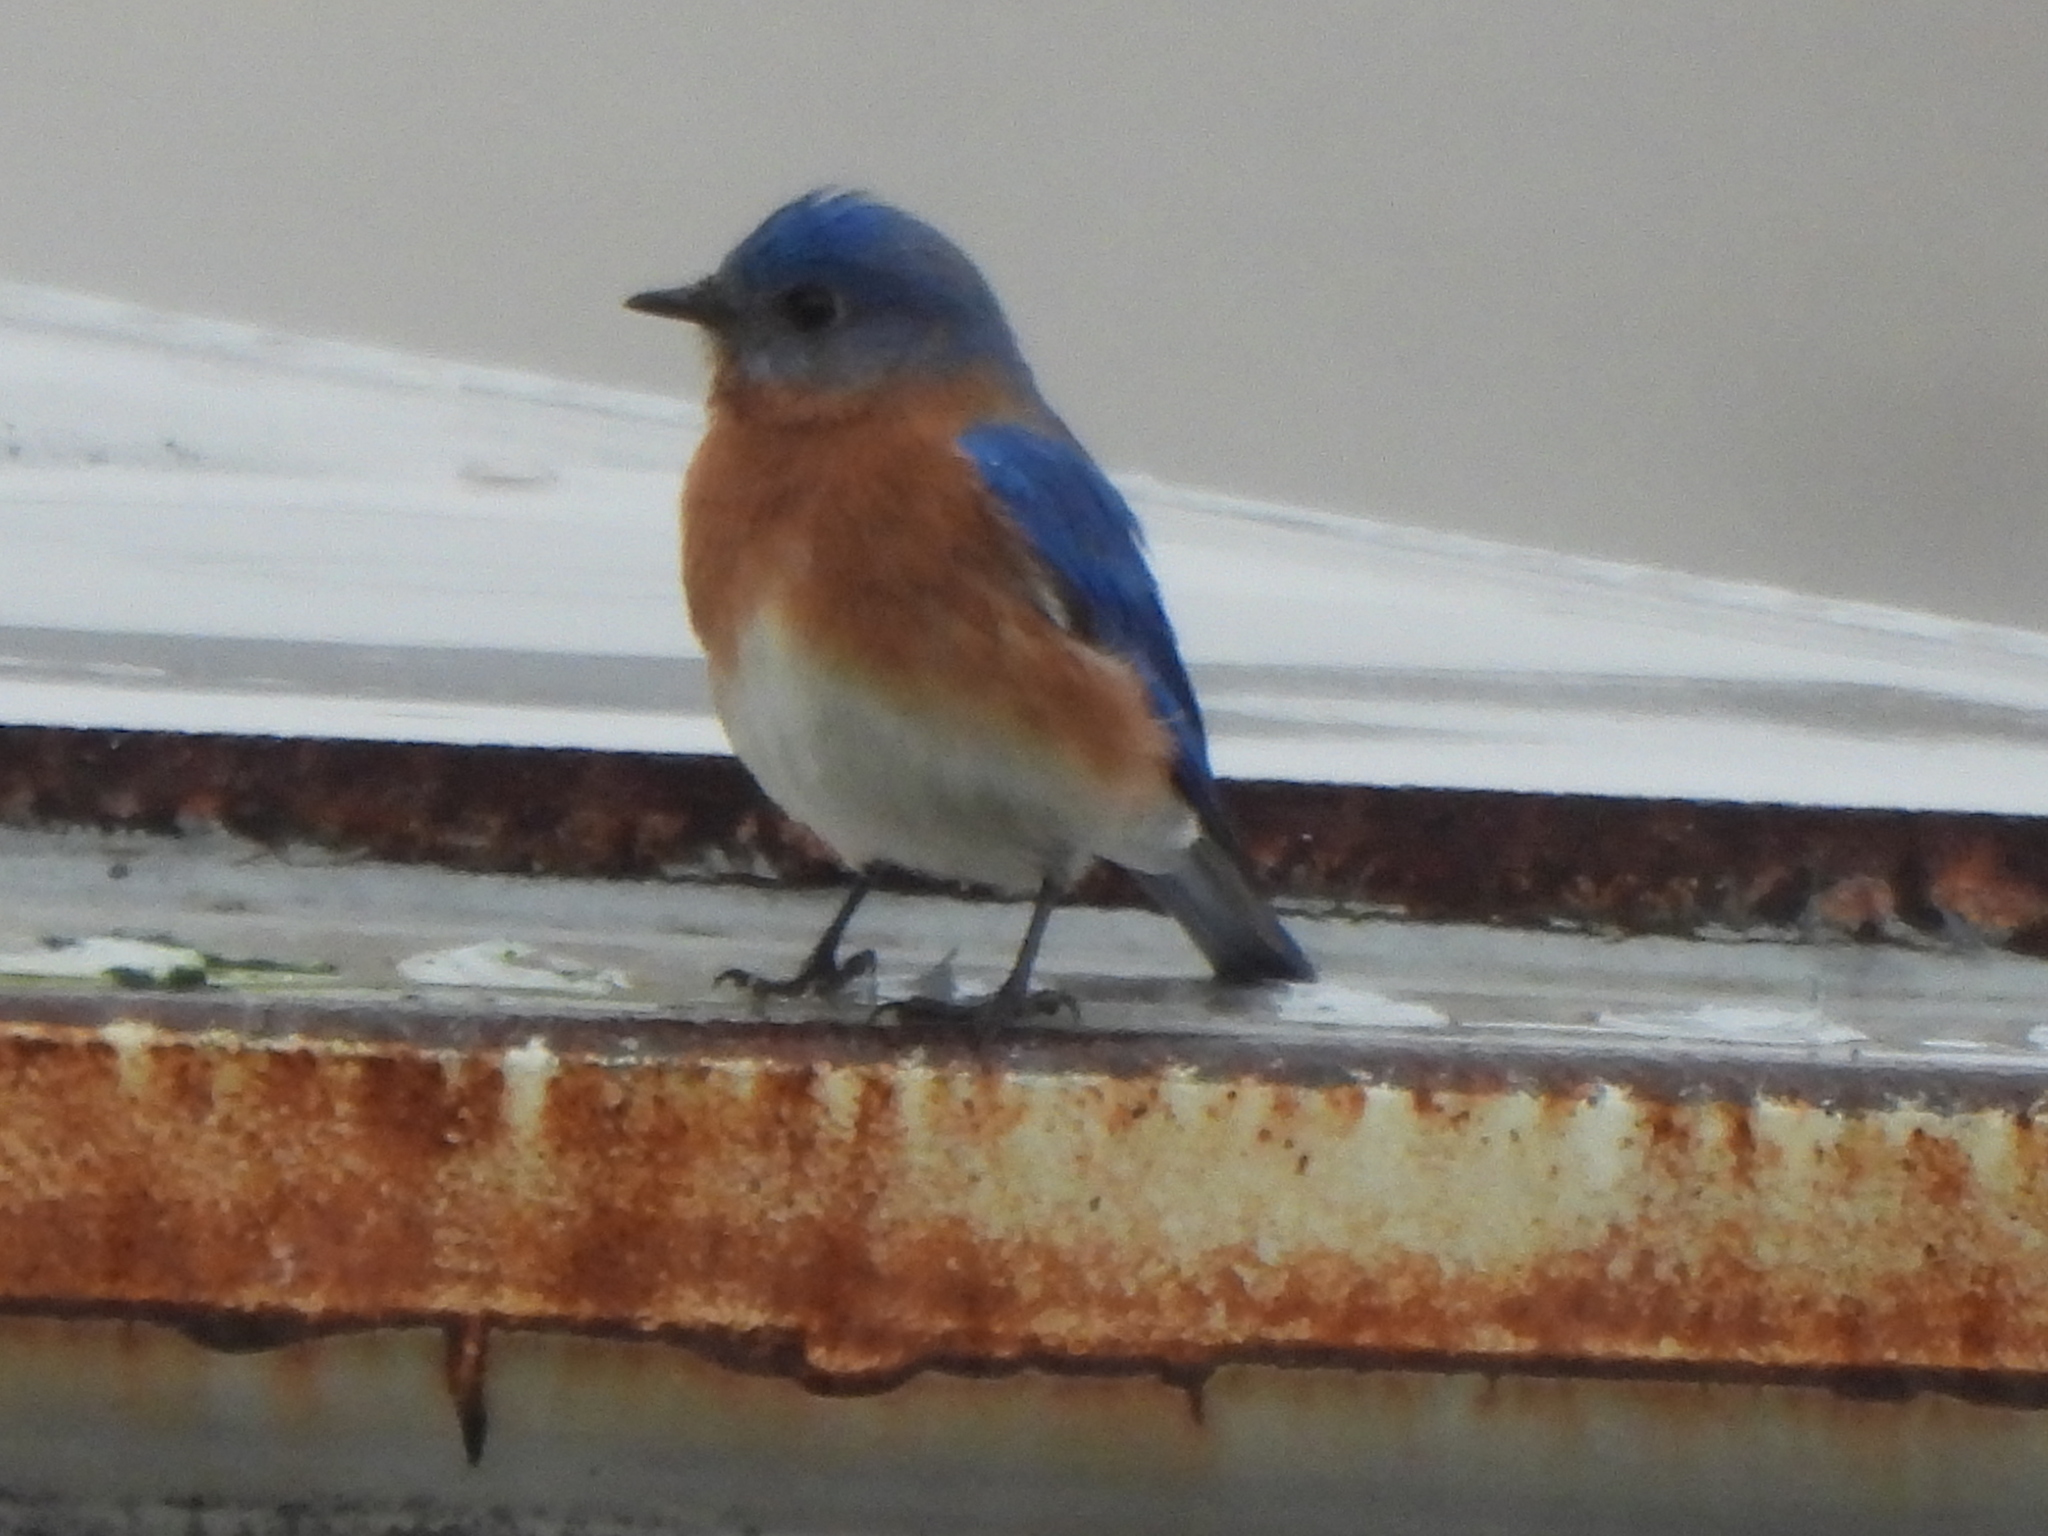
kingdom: Animalia
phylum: Chordata
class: Aves
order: Passeriformes
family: Turdidae
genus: Sialia
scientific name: Sialia sialis
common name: Eastern bluebird
